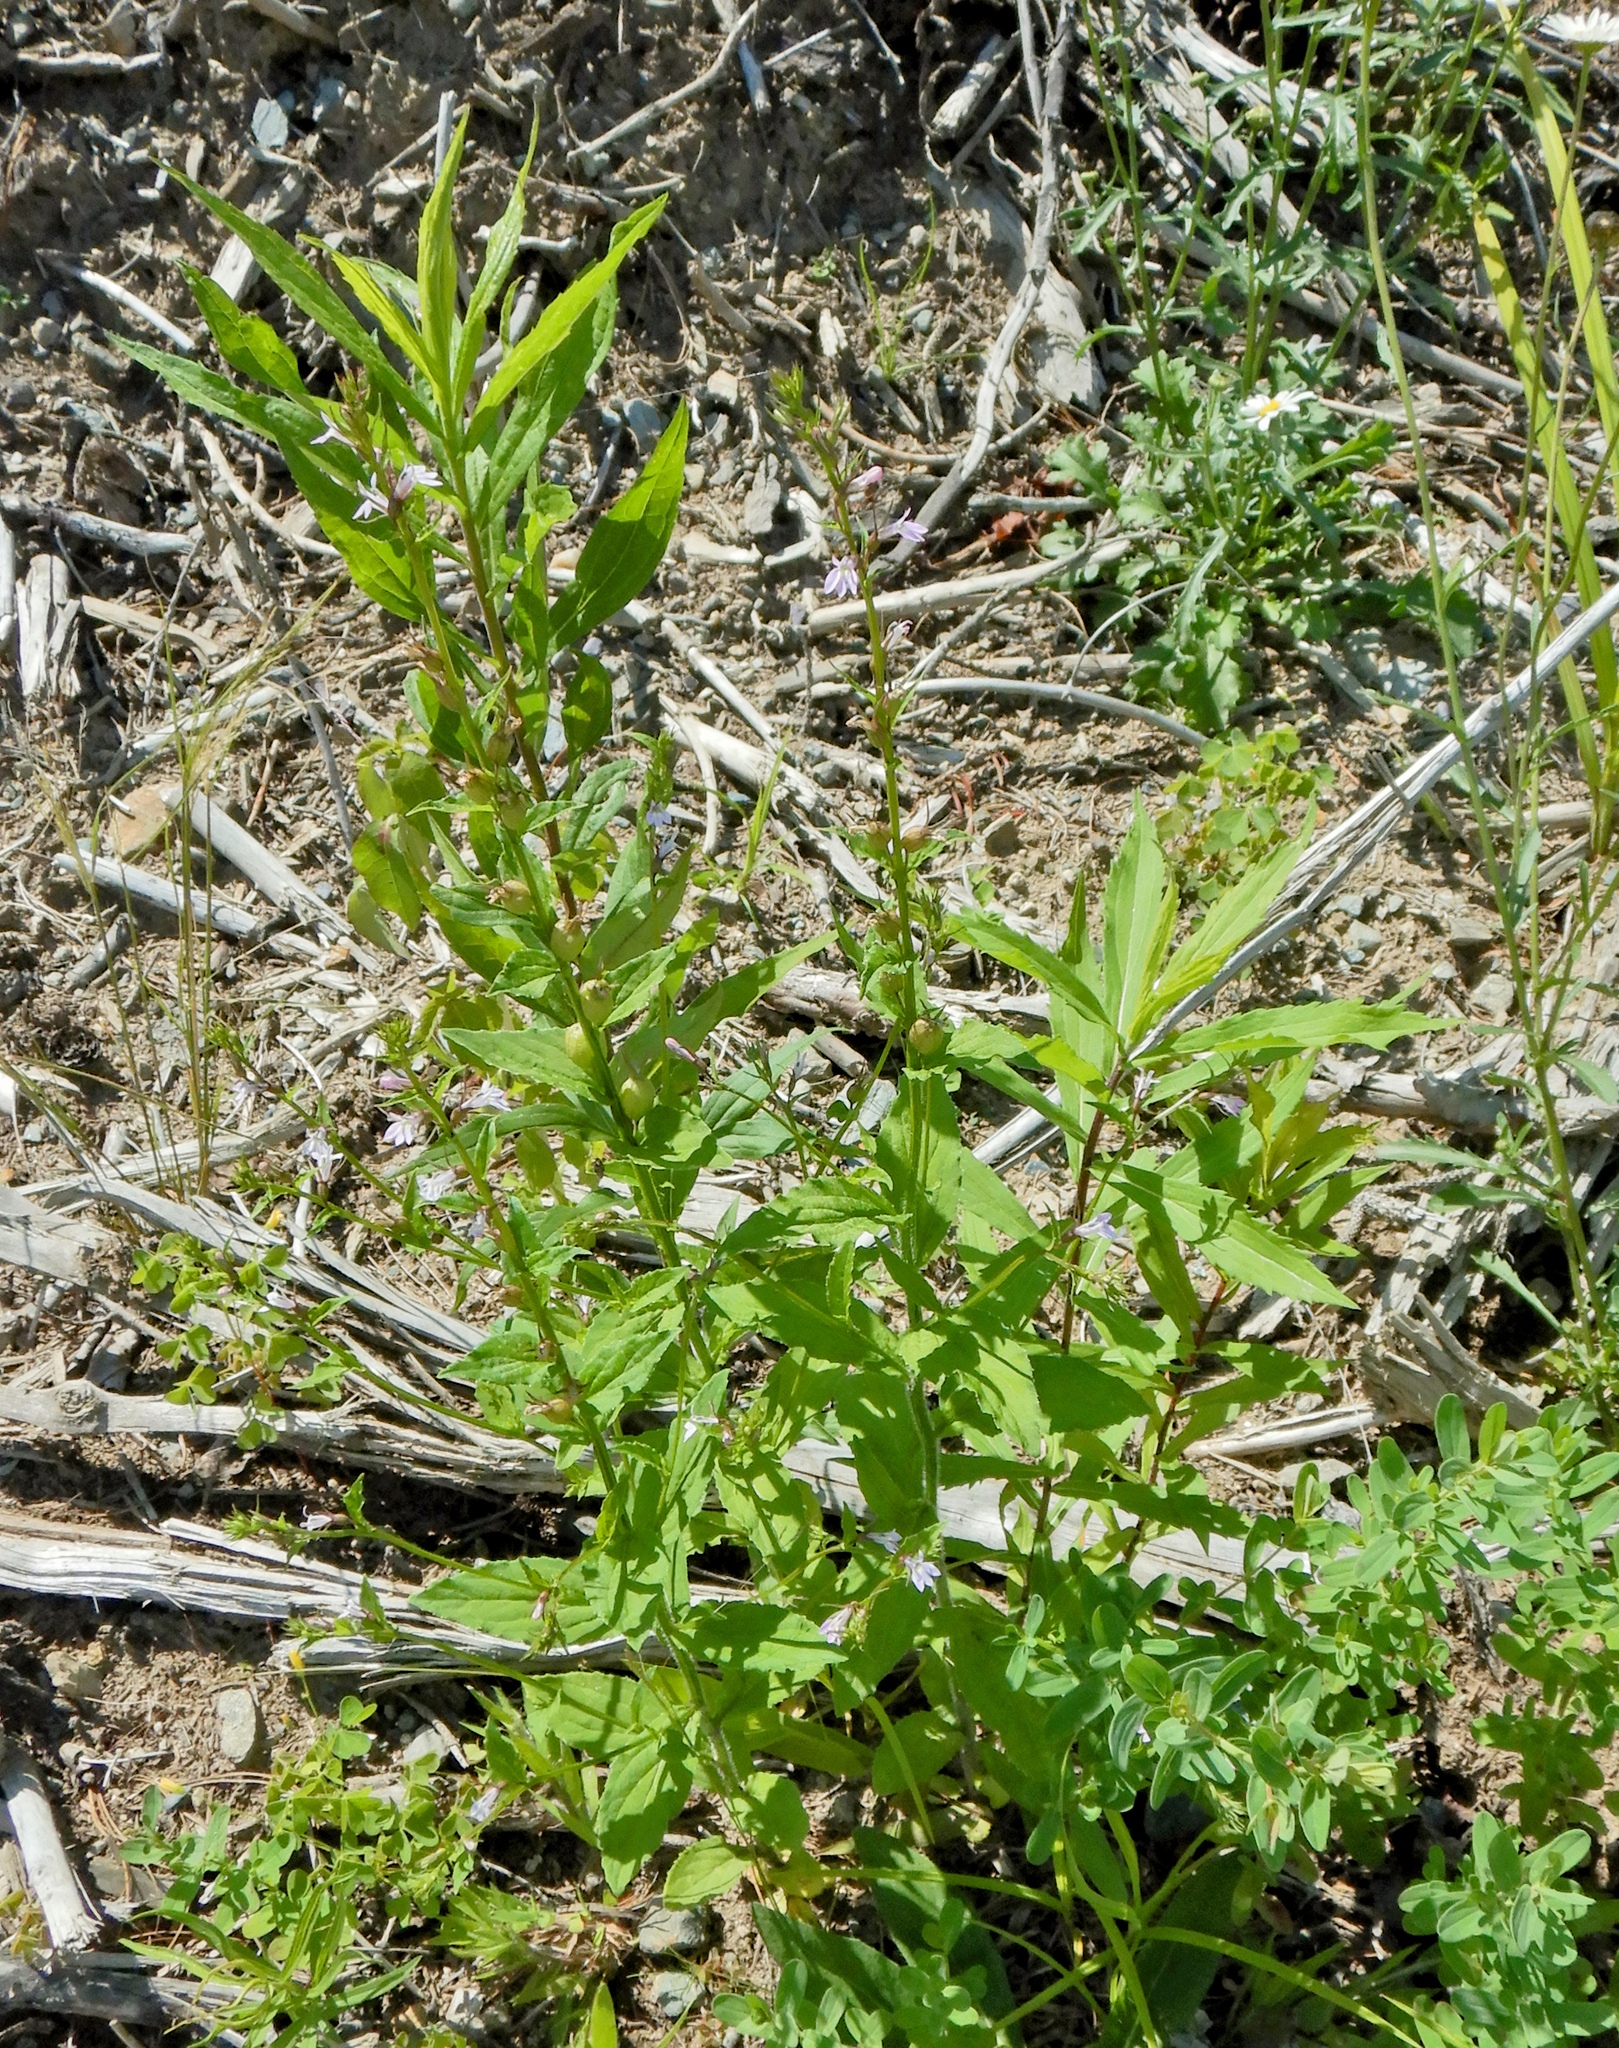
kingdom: Plantae
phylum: Tracheophyta
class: Magnoliopsida
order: Asterales
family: Campanulaceae
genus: Lobelia
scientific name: Lobelia inflata
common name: Indian tobacco
